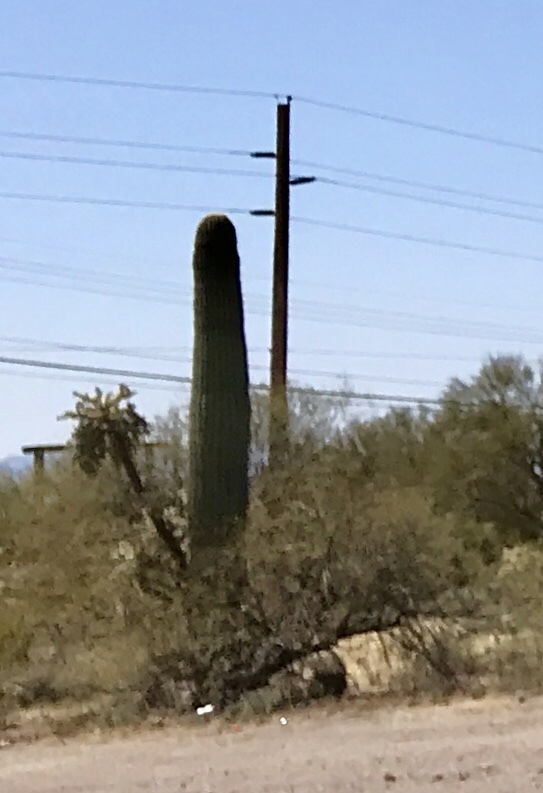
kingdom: Plantae
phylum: Tracheophyta
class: Magnoliopsida
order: Caryophyllales
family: Cactaceae
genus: Carnegiea
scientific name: Carnegiea gigantea
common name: Saguaro
